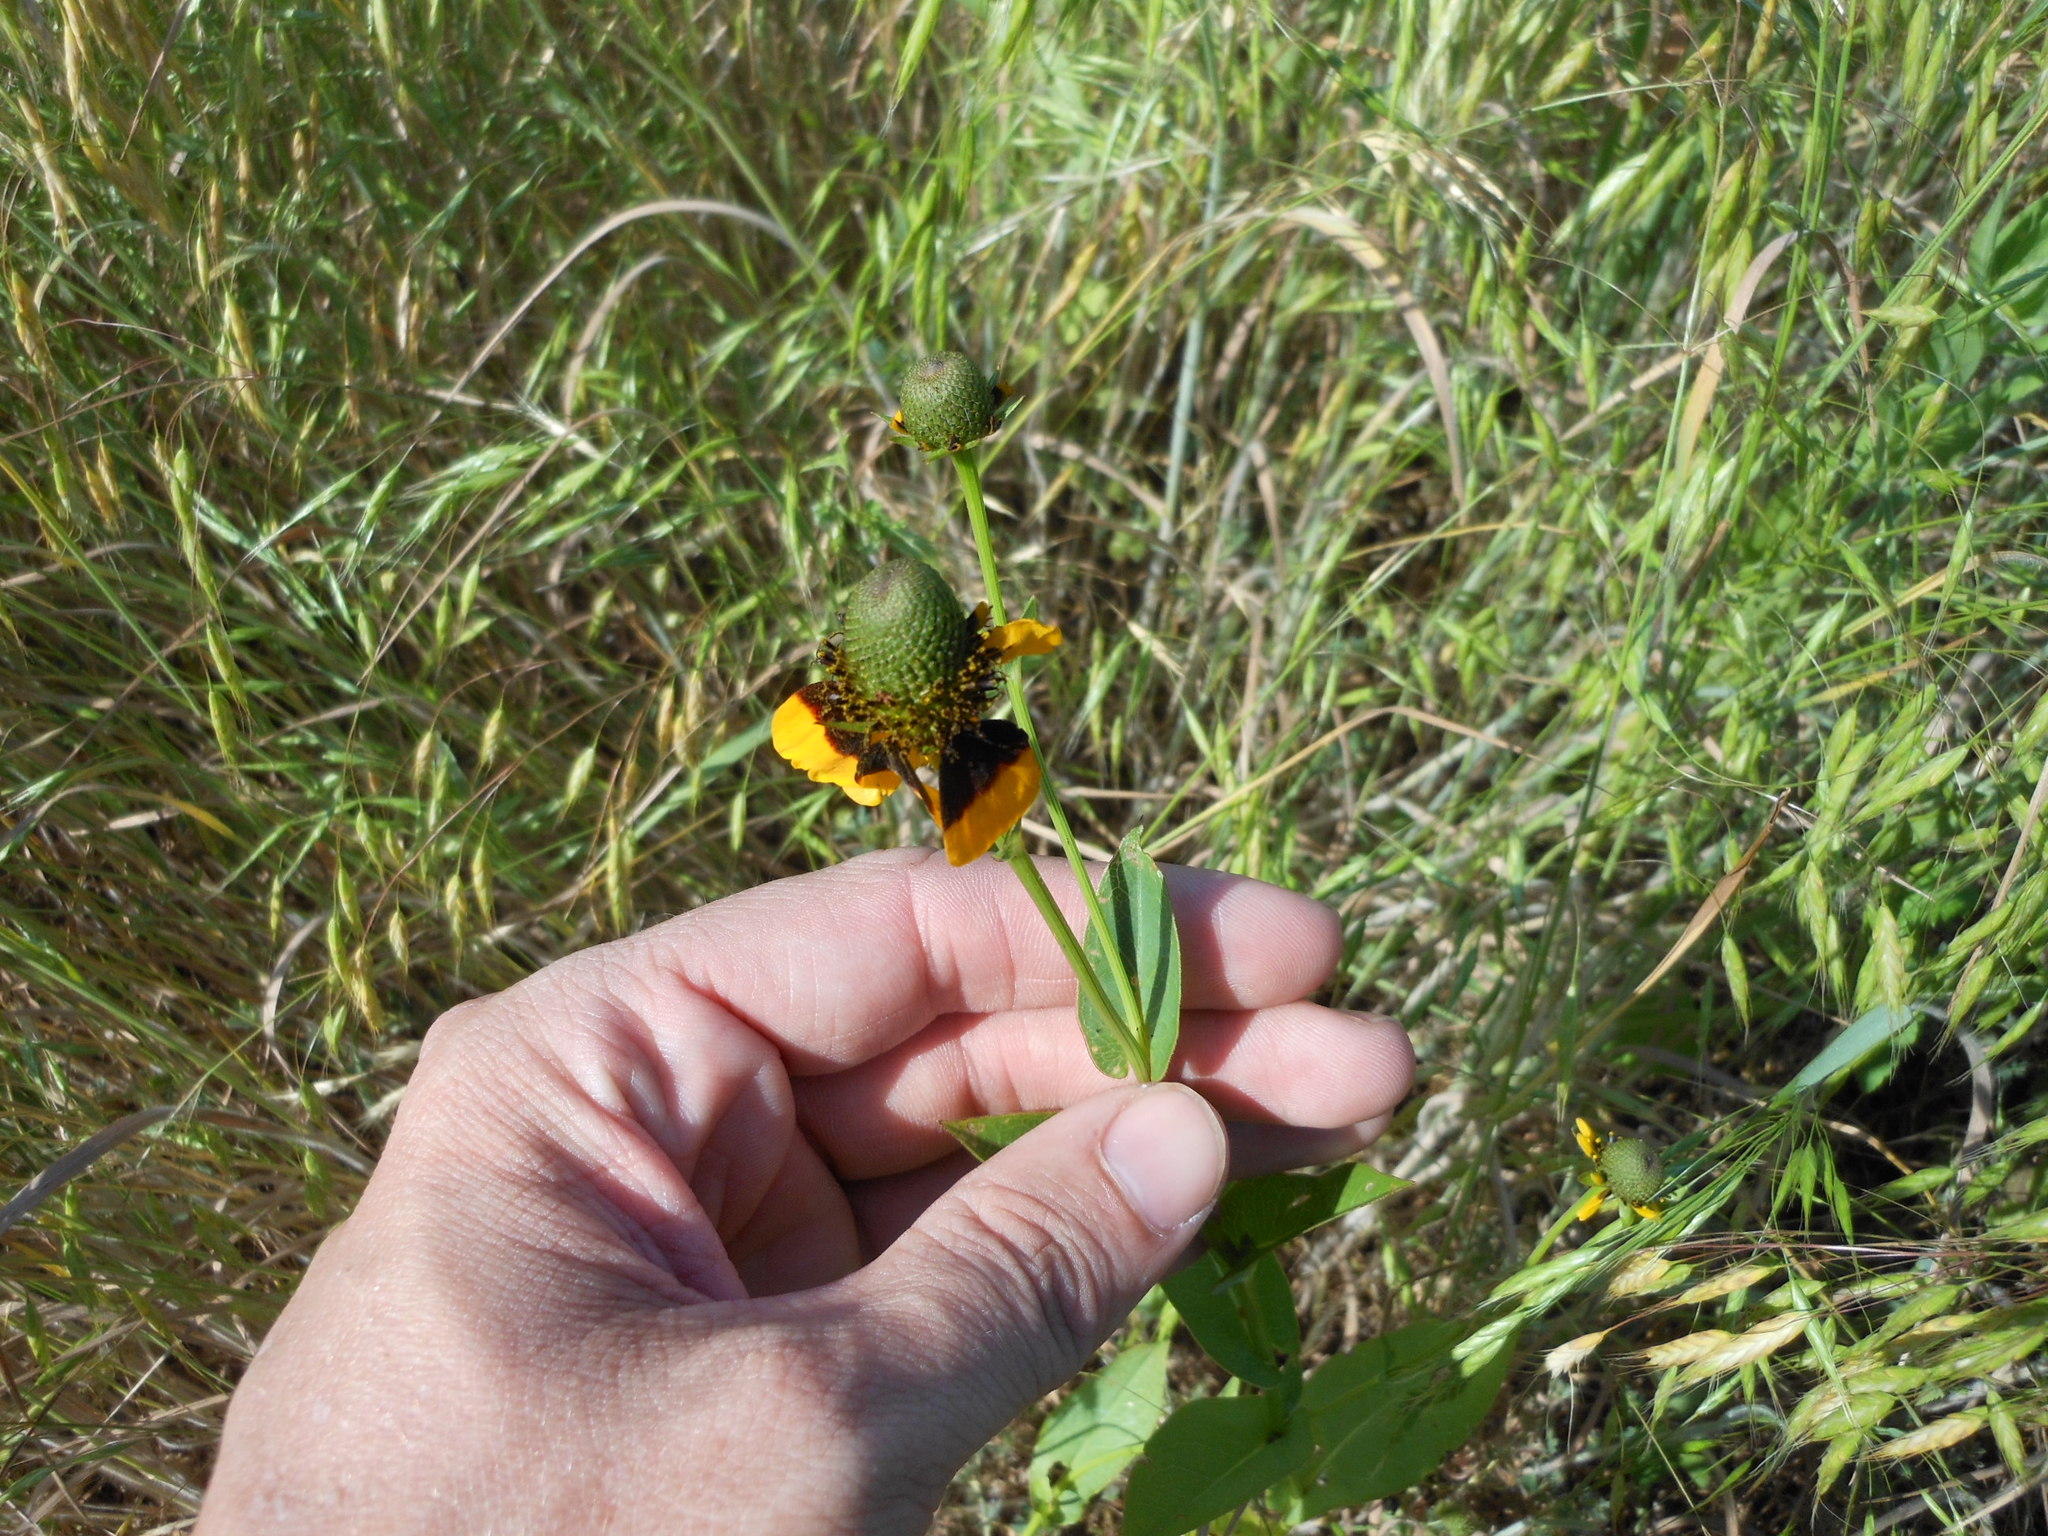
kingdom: Plantae
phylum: Tracheophyta
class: Magnoliopsida
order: Asterales
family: Asteraceae
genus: Rudbeckia
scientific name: Rudbeckia amplexicaulis
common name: Clasping-leaf coneflower
